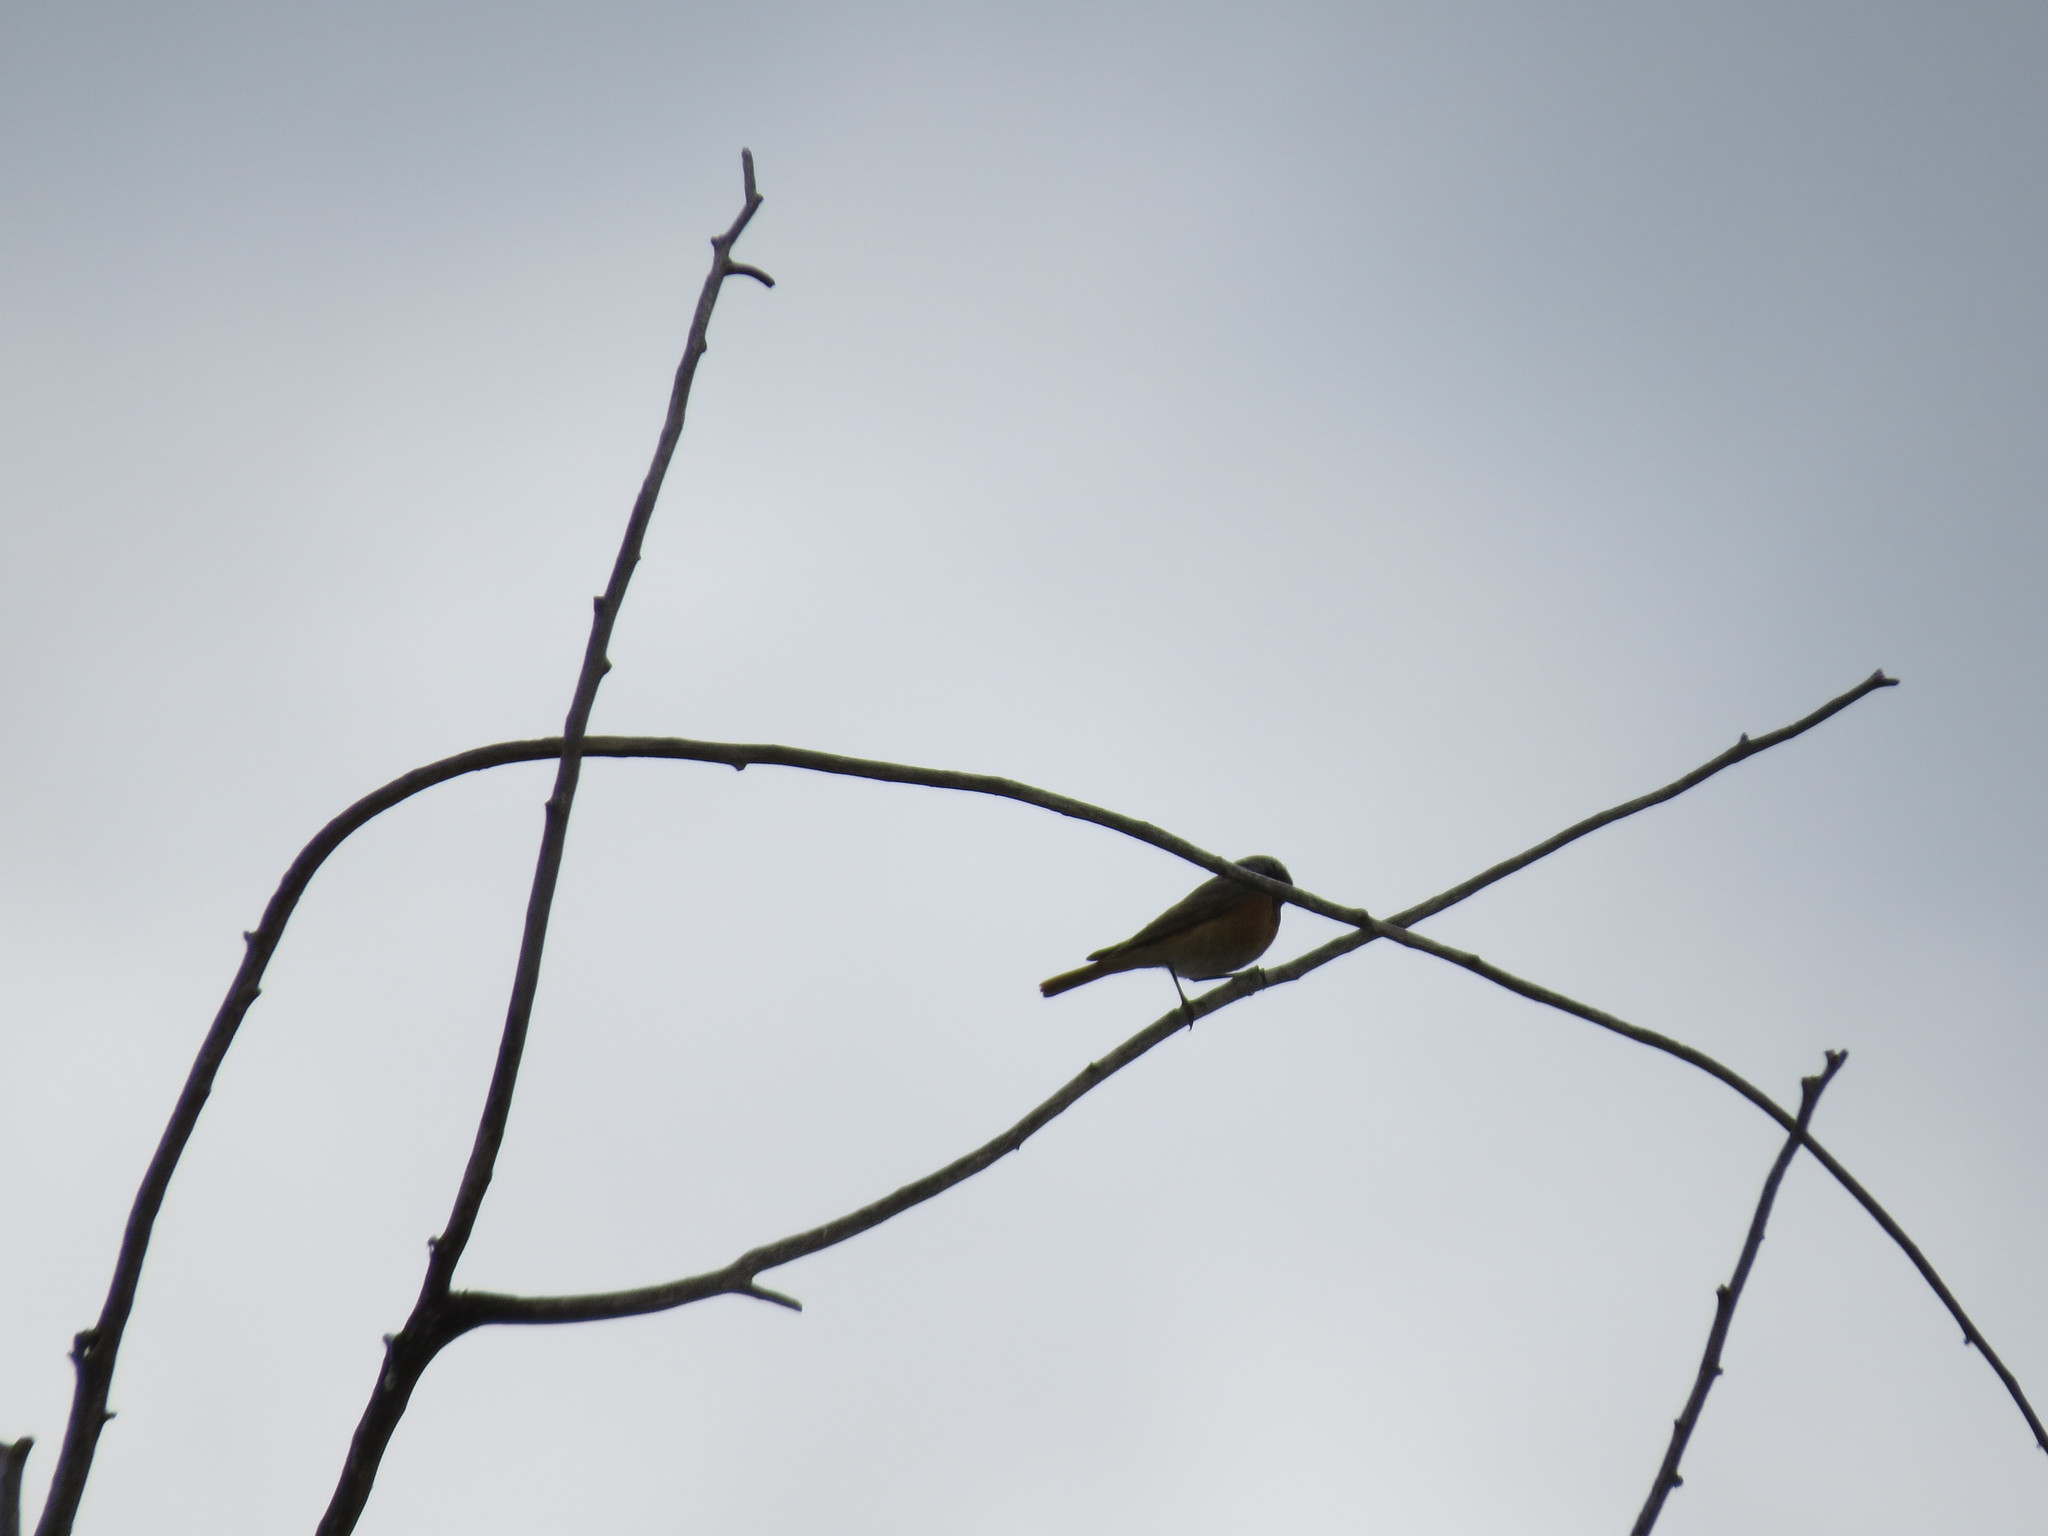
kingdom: Animalia
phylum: Chordata
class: Aves
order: Passeriformes
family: Muscicapidae
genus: Phoenicurus
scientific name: Phoenicurus phoenicurus
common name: Common redstart
